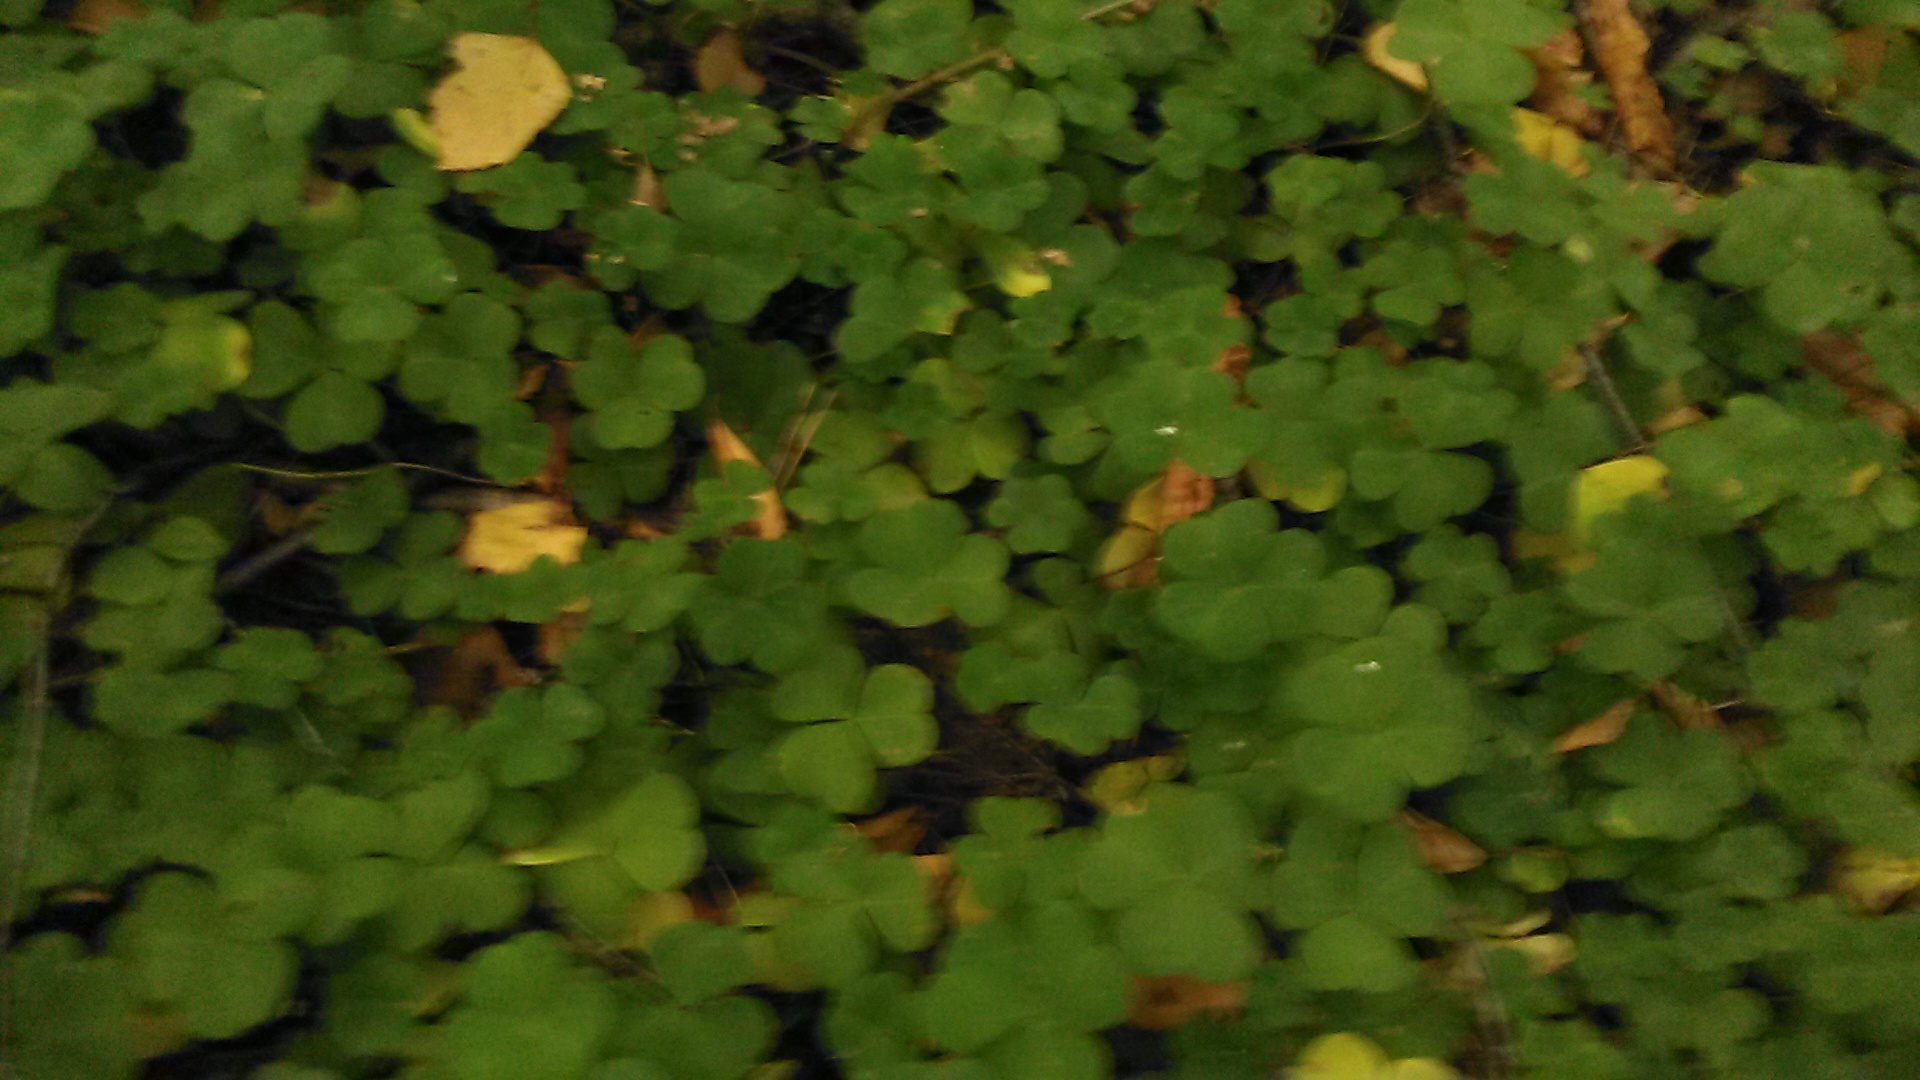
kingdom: Plantae
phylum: Tracheophyta
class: Magnoliopsida
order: Oxalidales
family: Oxalidaceae
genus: Oxalis
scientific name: Oxalis acetosella
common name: Wood-sorrel
